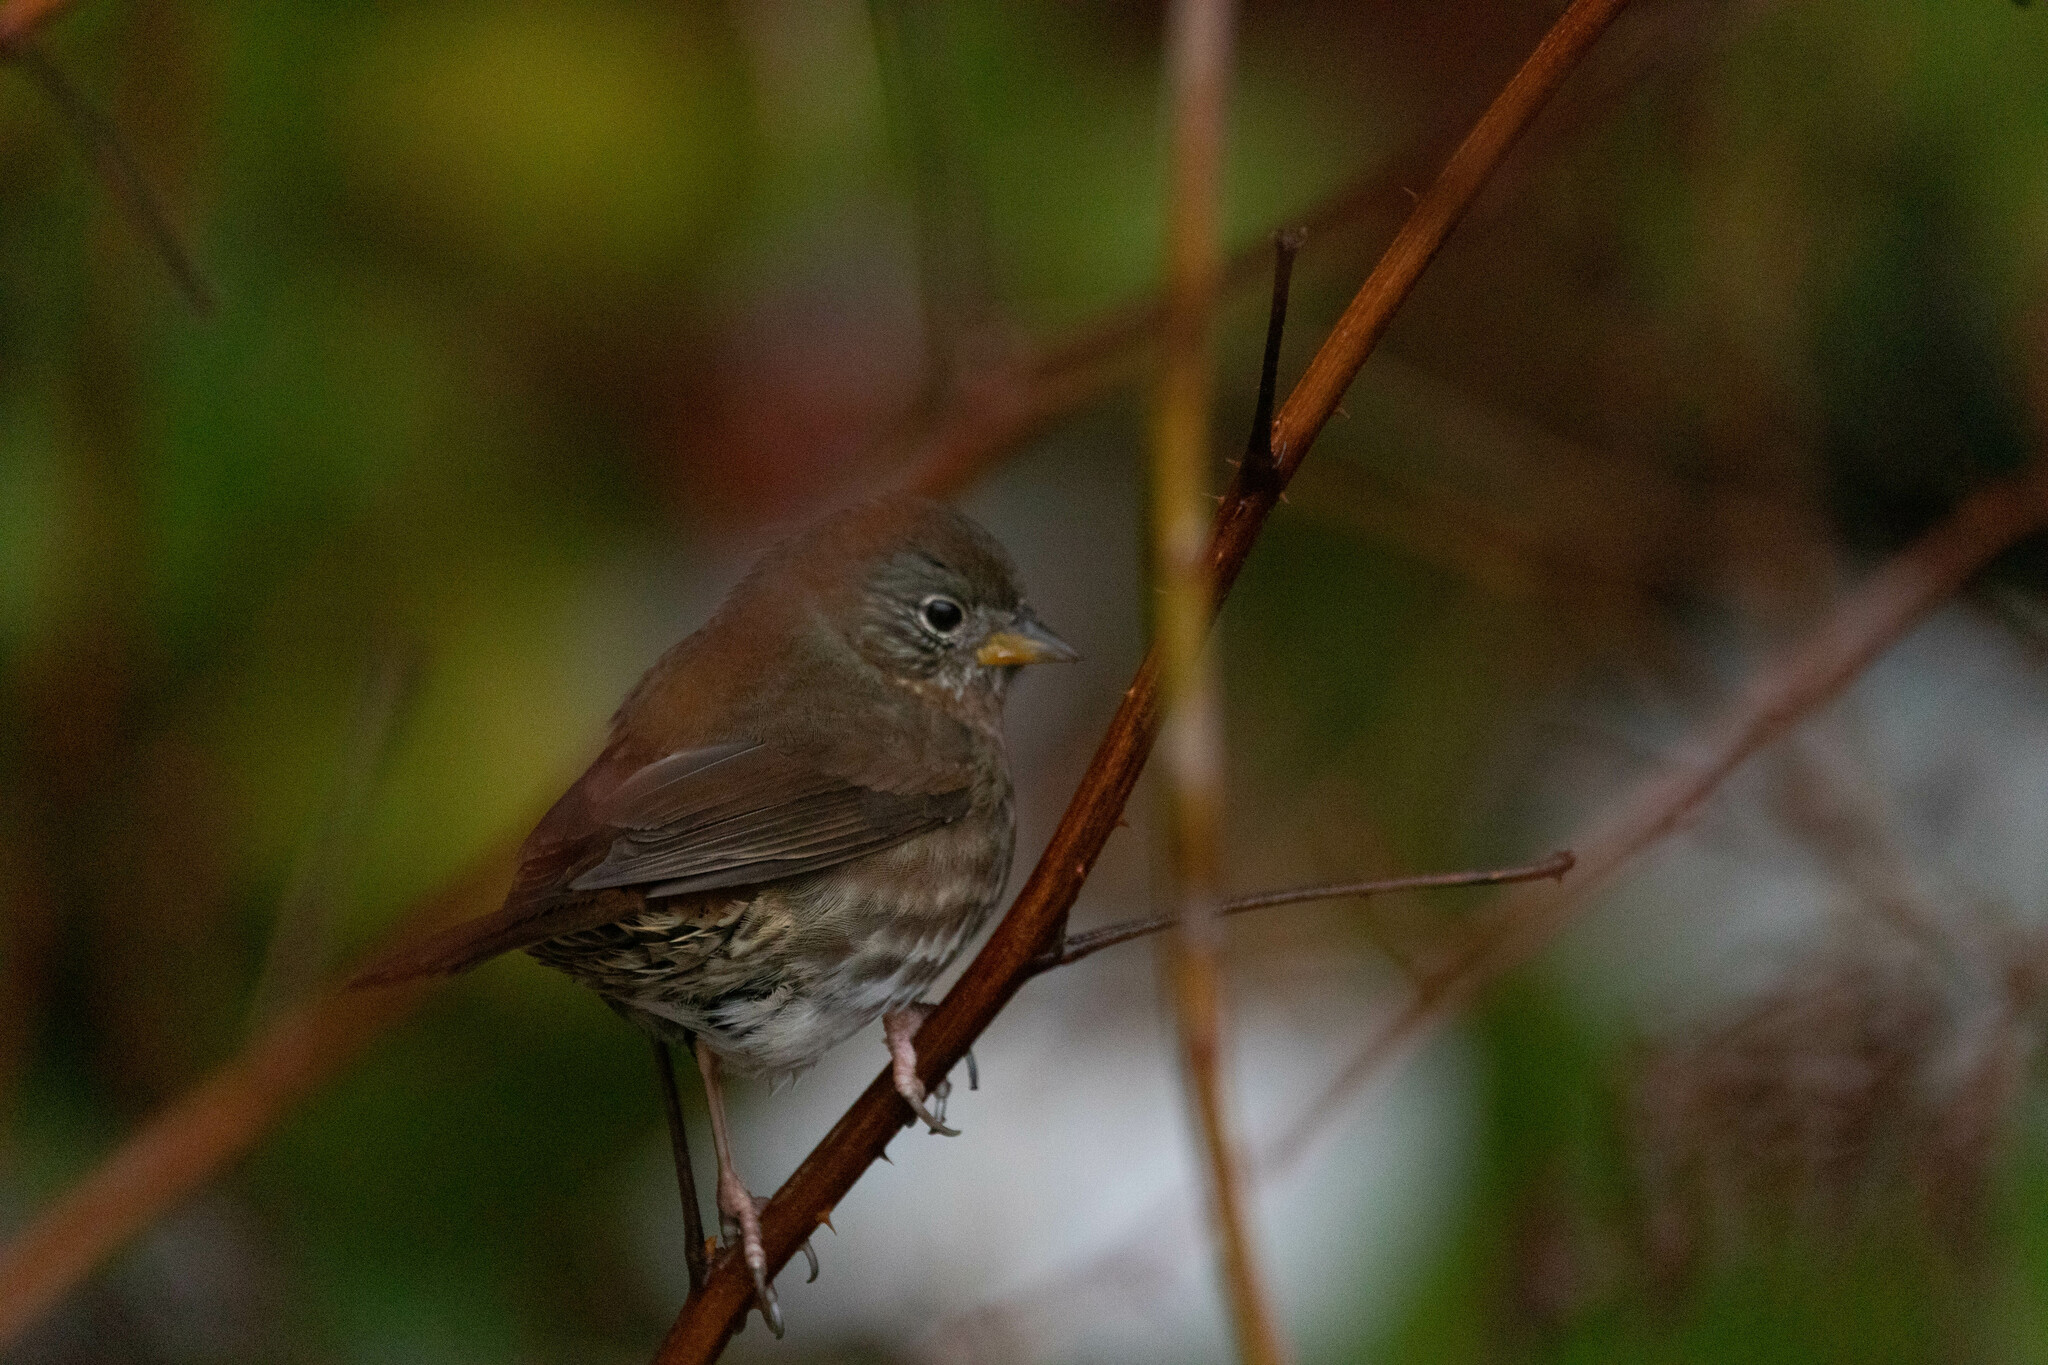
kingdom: Animalia
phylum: Chordata
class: Aves
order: Passeriformes
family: Passerellidae
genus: Passerella
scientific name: Passerella iliaca
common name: Fox sparrow
